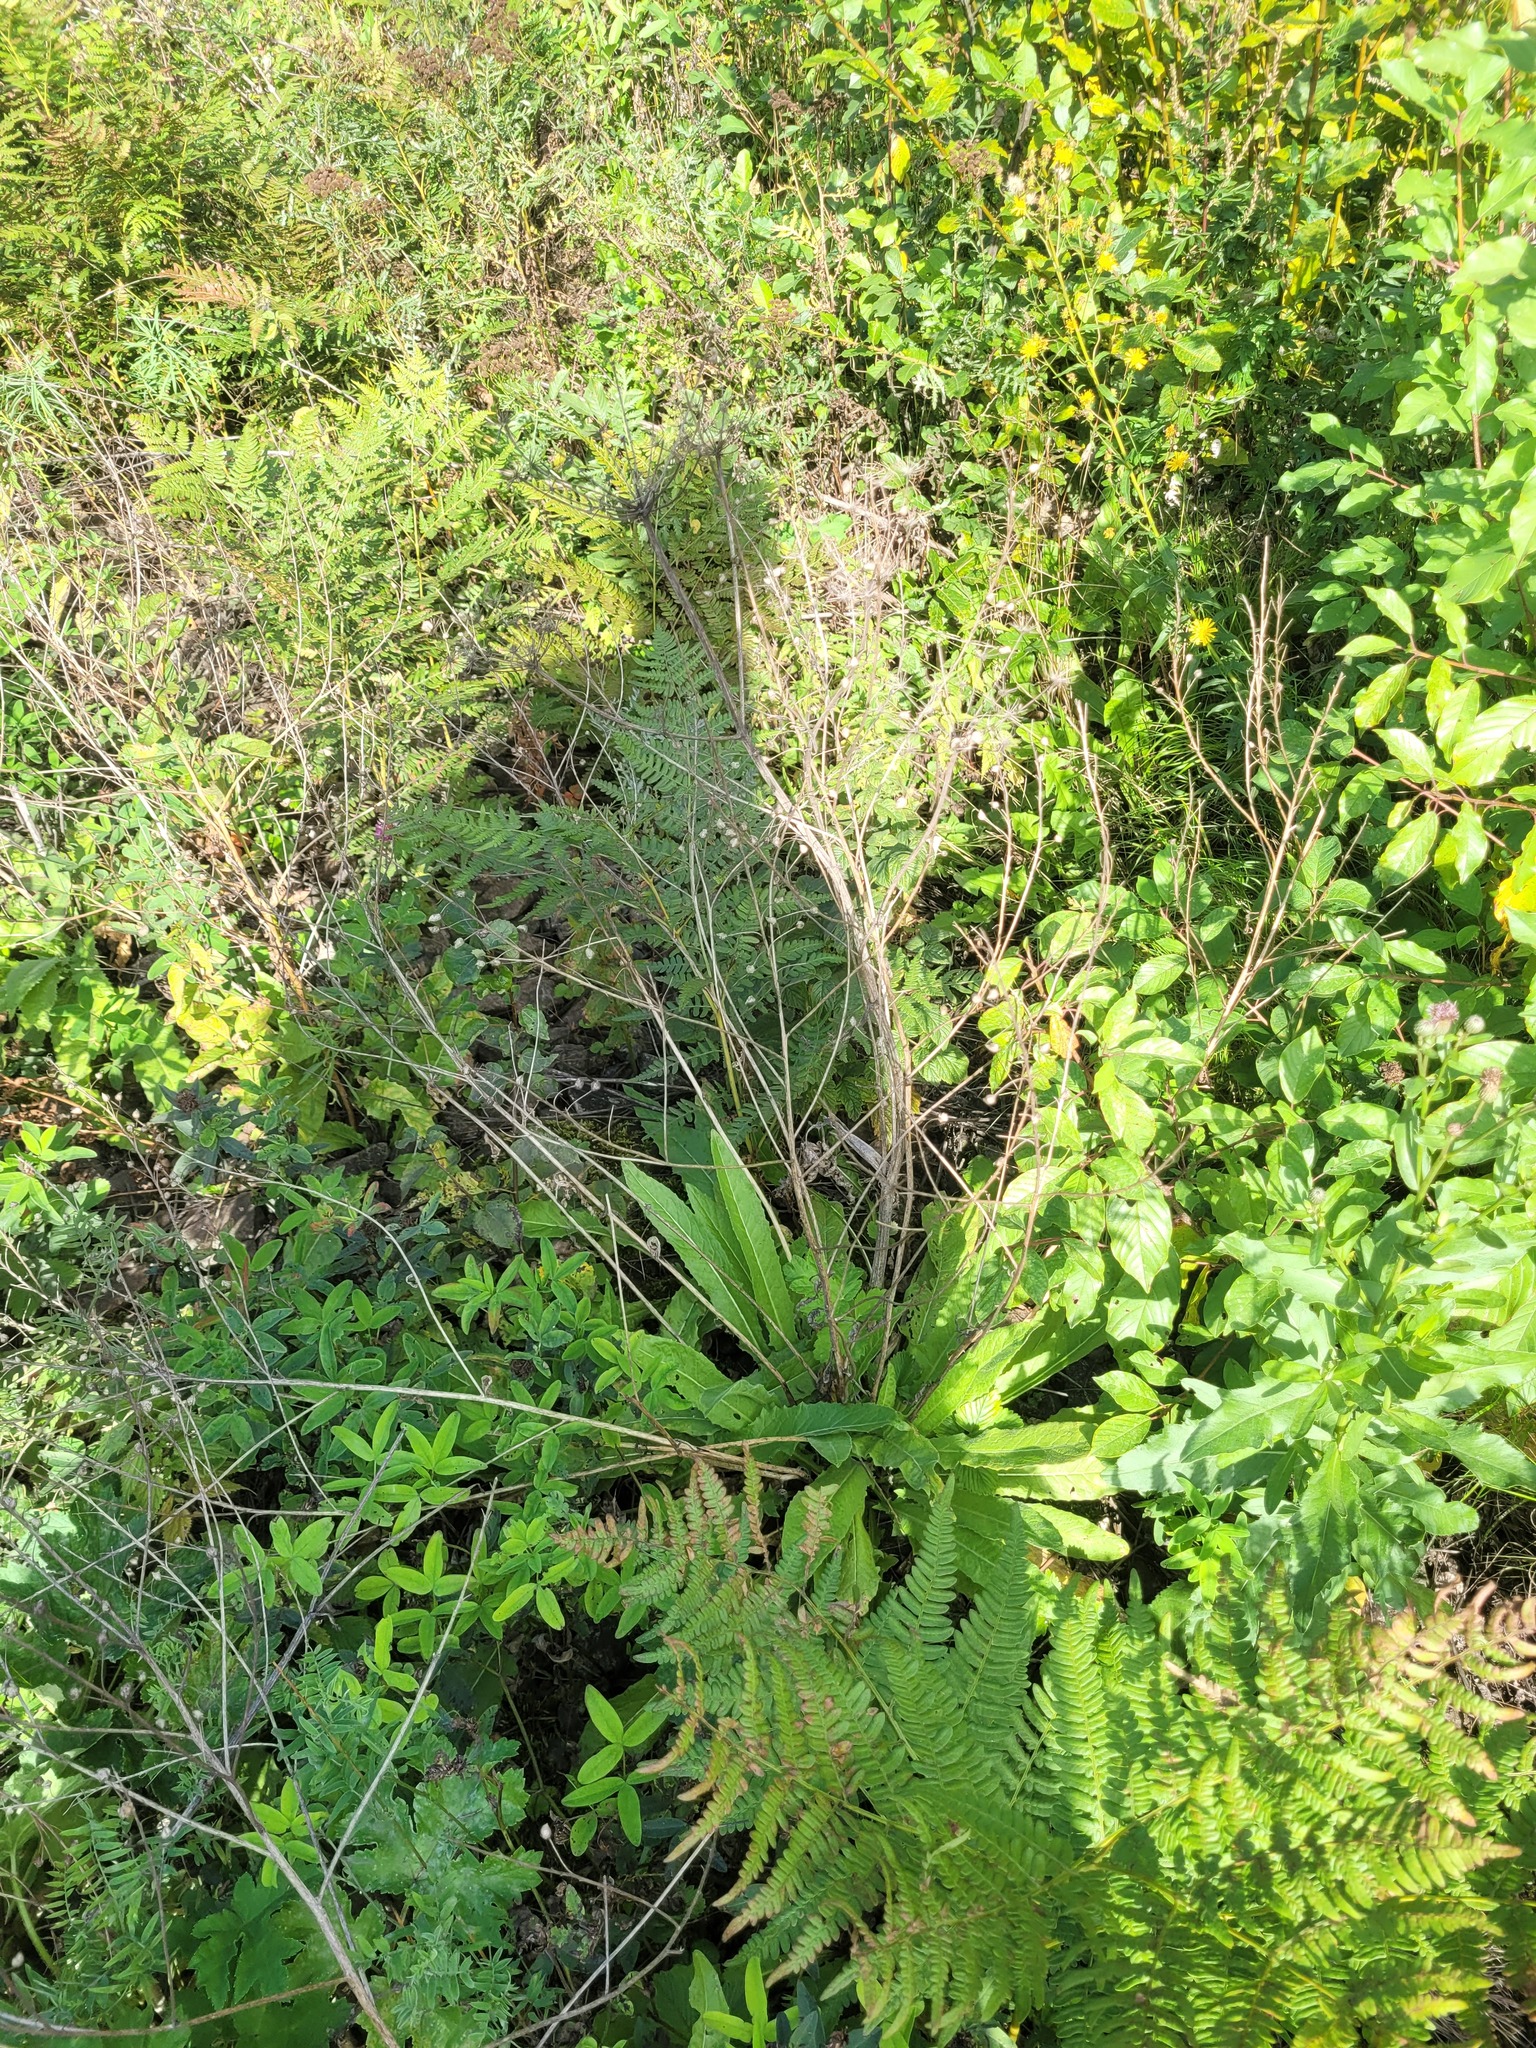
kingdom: Plantae
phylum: Tracheophyta
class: Magnoliopsida
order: Brassicales
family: Brassicaceae
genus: Bunias
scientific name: Bunias orientalis
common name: Warty-cabbage
